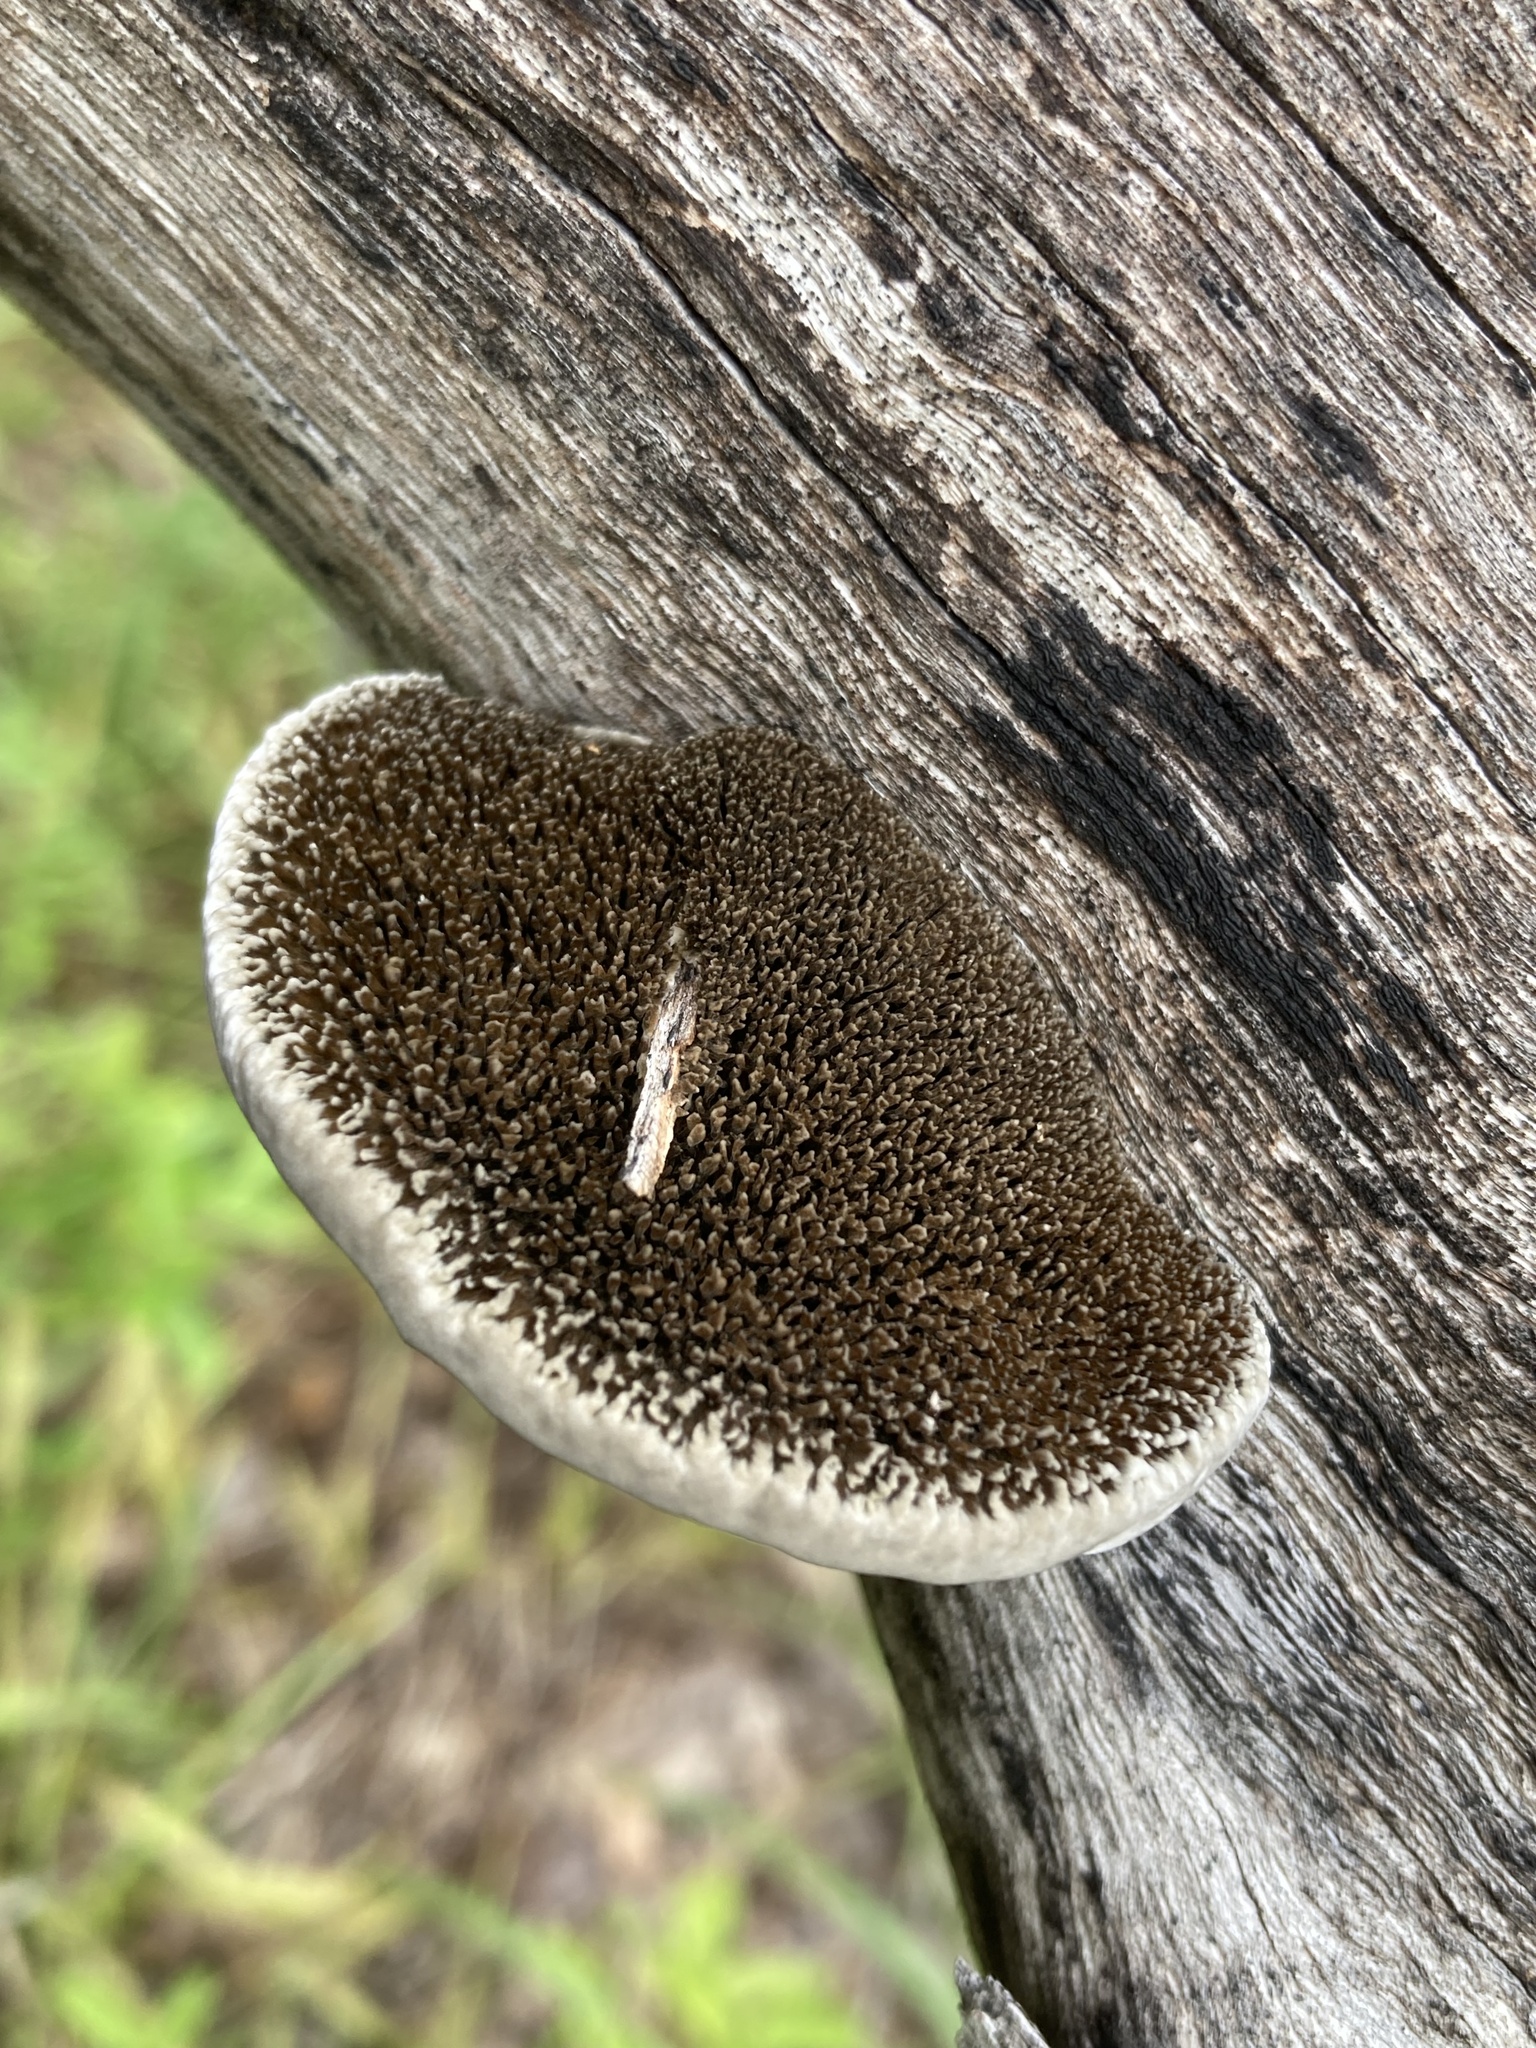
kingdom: Fungi
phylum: Basidiomycota
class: Agaricomycetes
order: Polyporales
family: Cerrenaceae
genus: Cerrena
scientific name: Cerrena hydnoides
